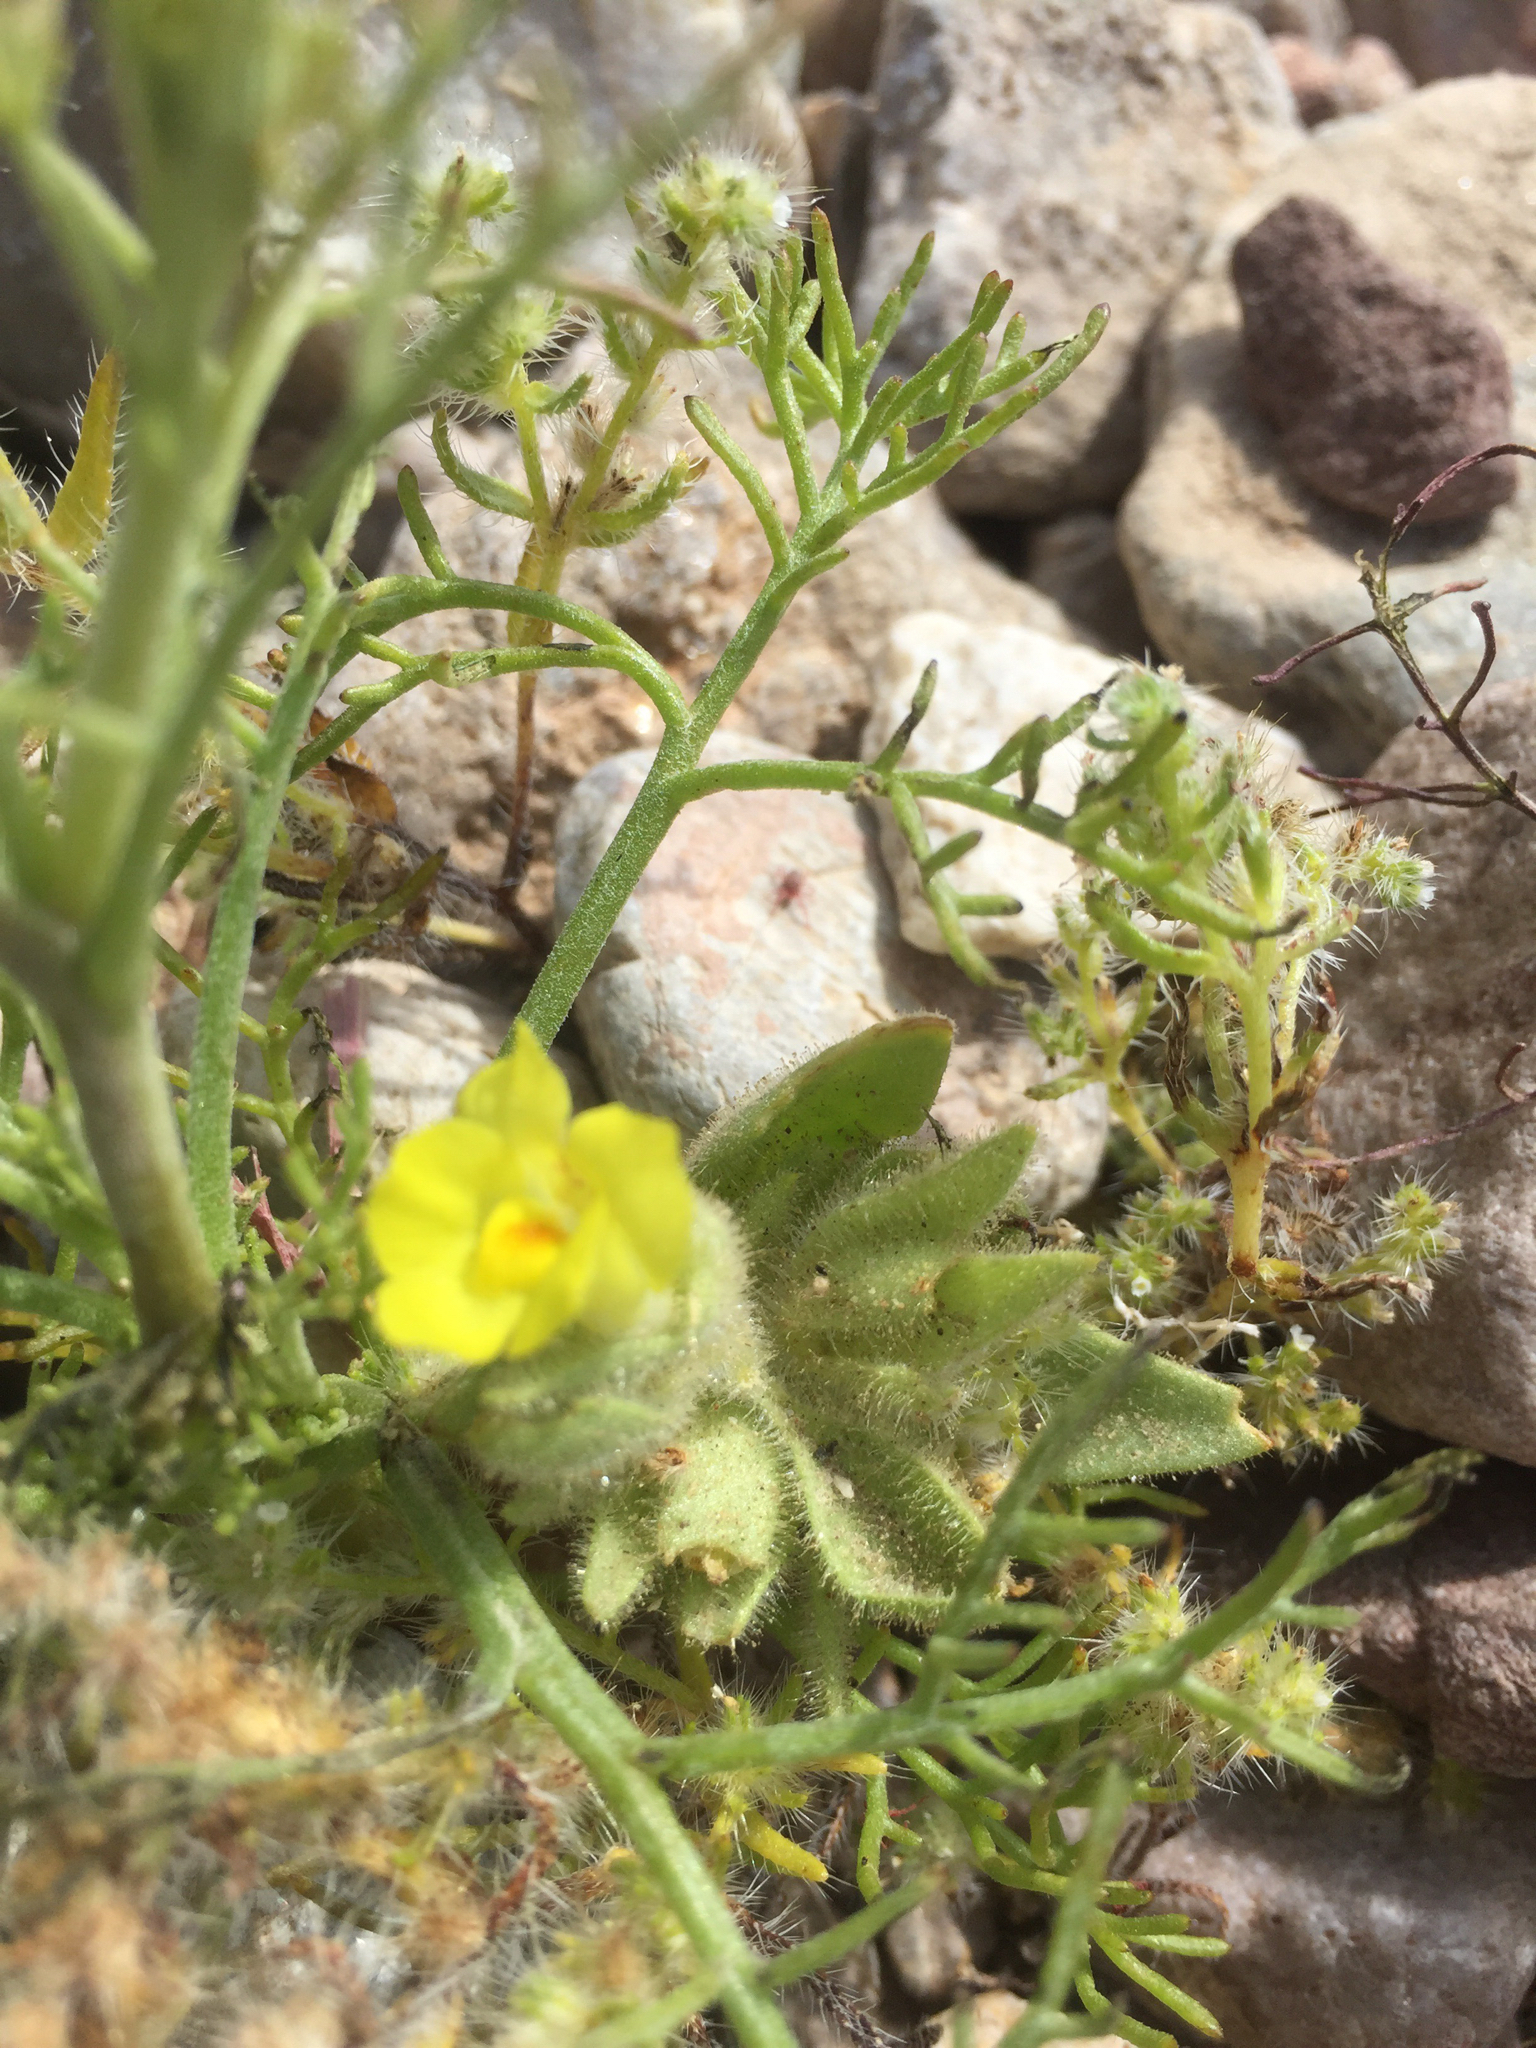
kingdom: Plantae
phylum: Tracheophyta
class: Magnoliopsida
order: Lamiales
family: Plantaginaceae
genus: Mohavea
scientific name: Mohavea breviflora
